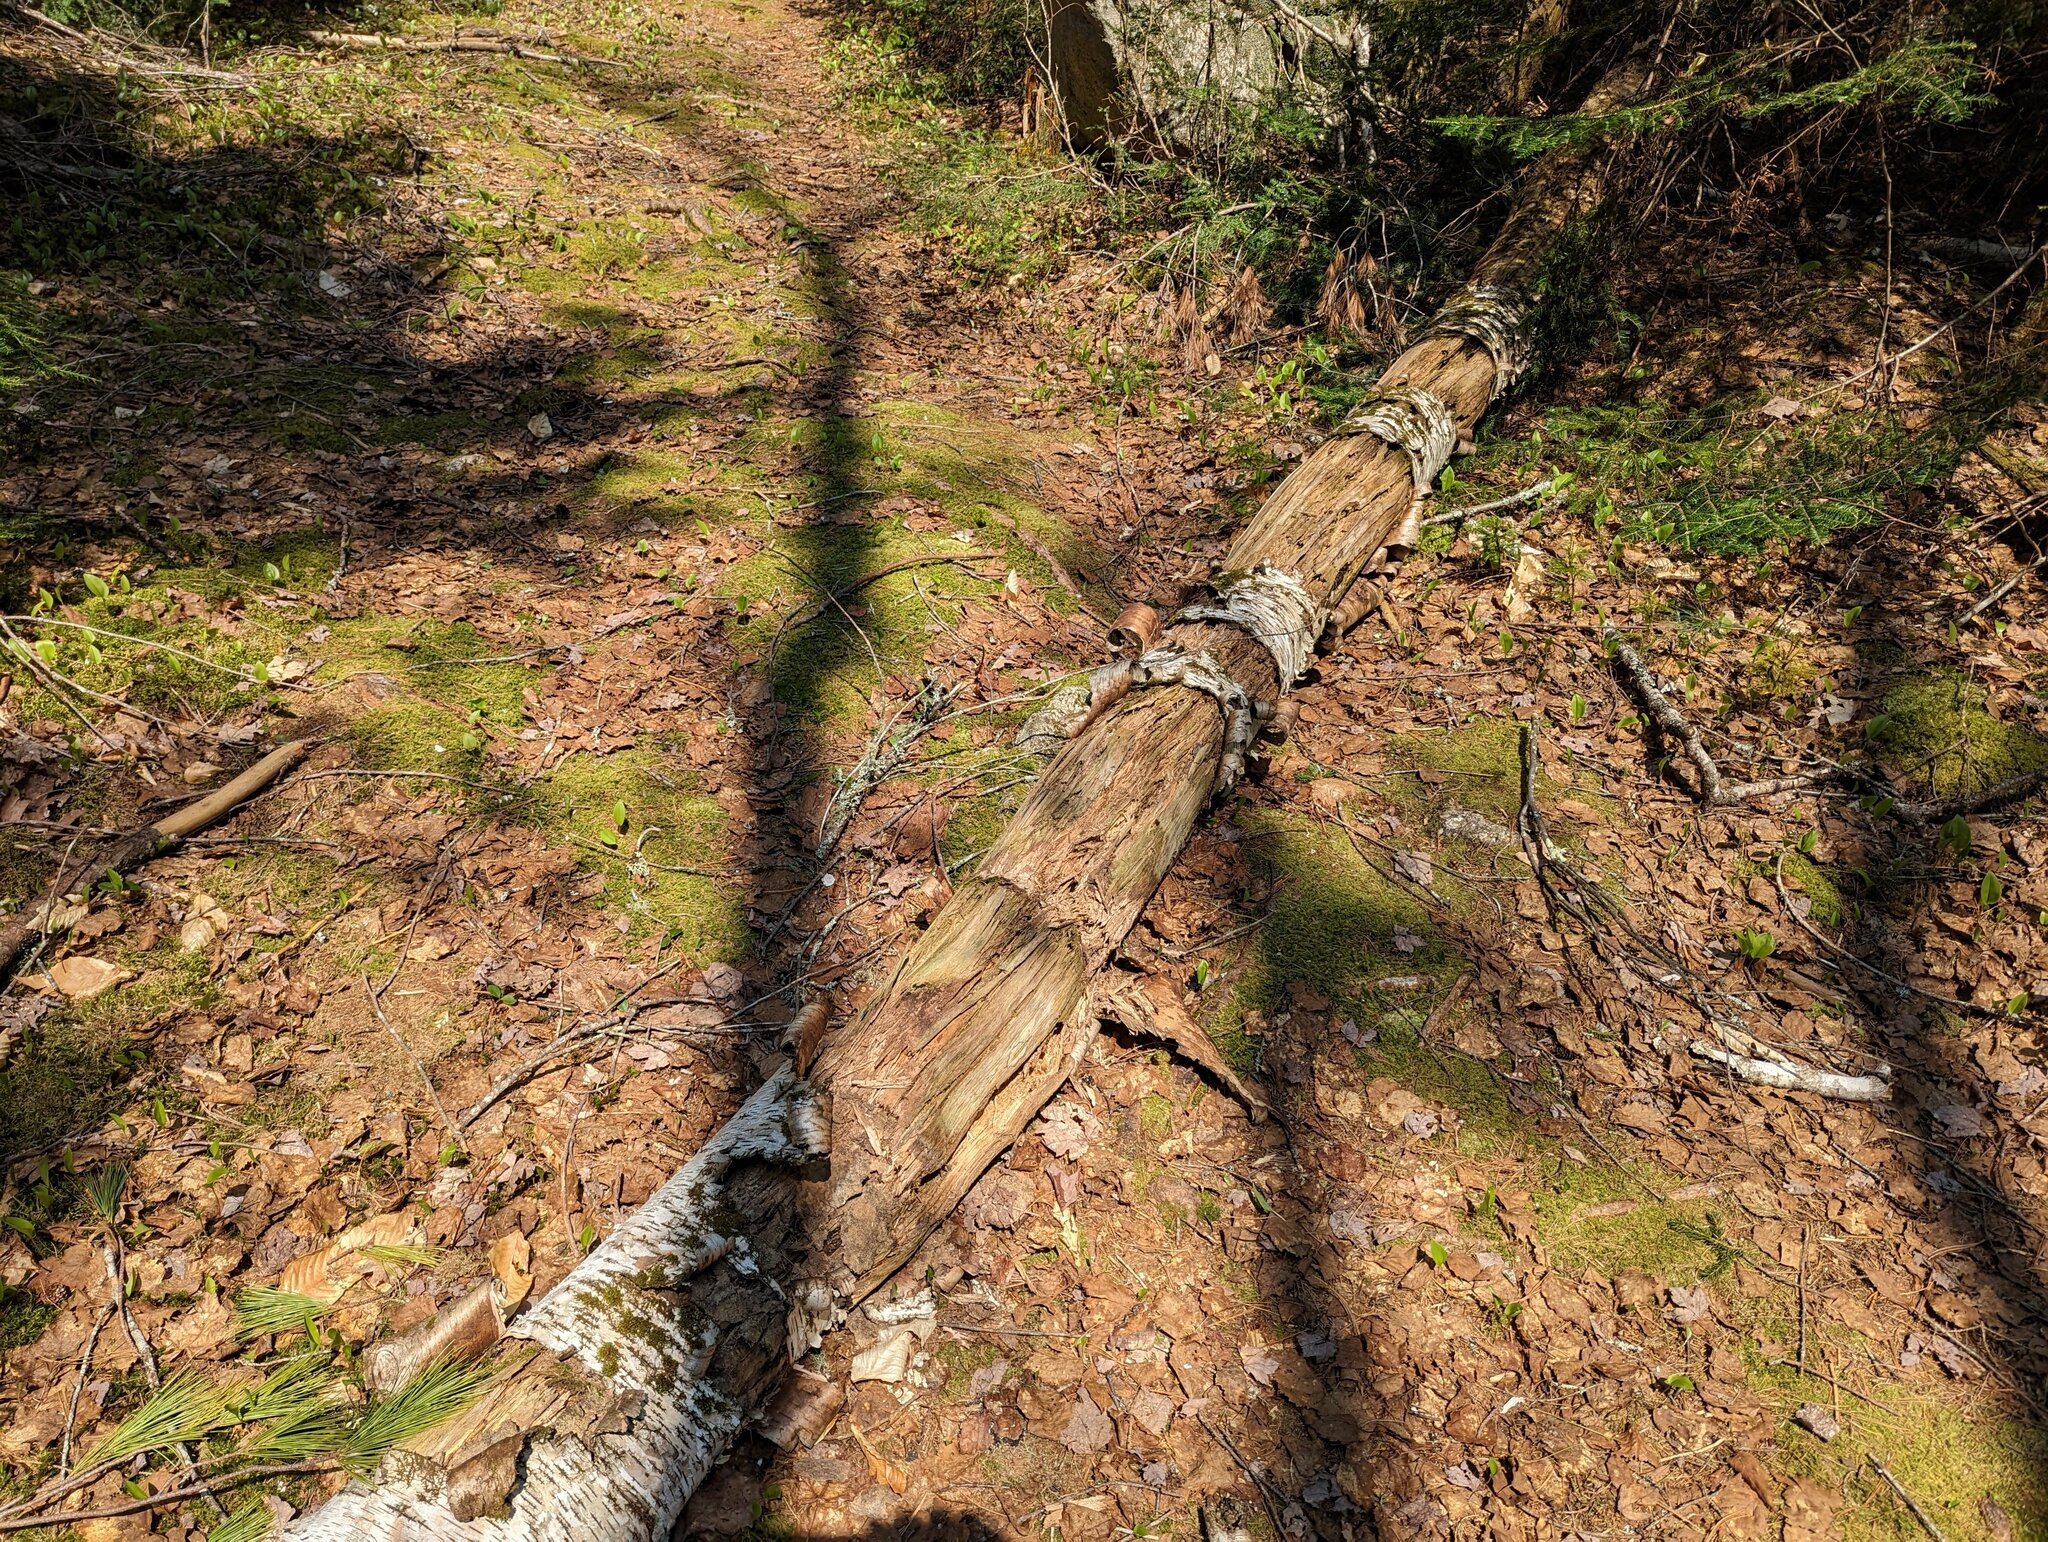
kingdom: Plantae
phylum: Tracheophyta
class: Magnoliopsida
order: Fagales
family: Betulaceae
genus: Betula
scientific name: Betula papyrifera
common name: Paper birch
